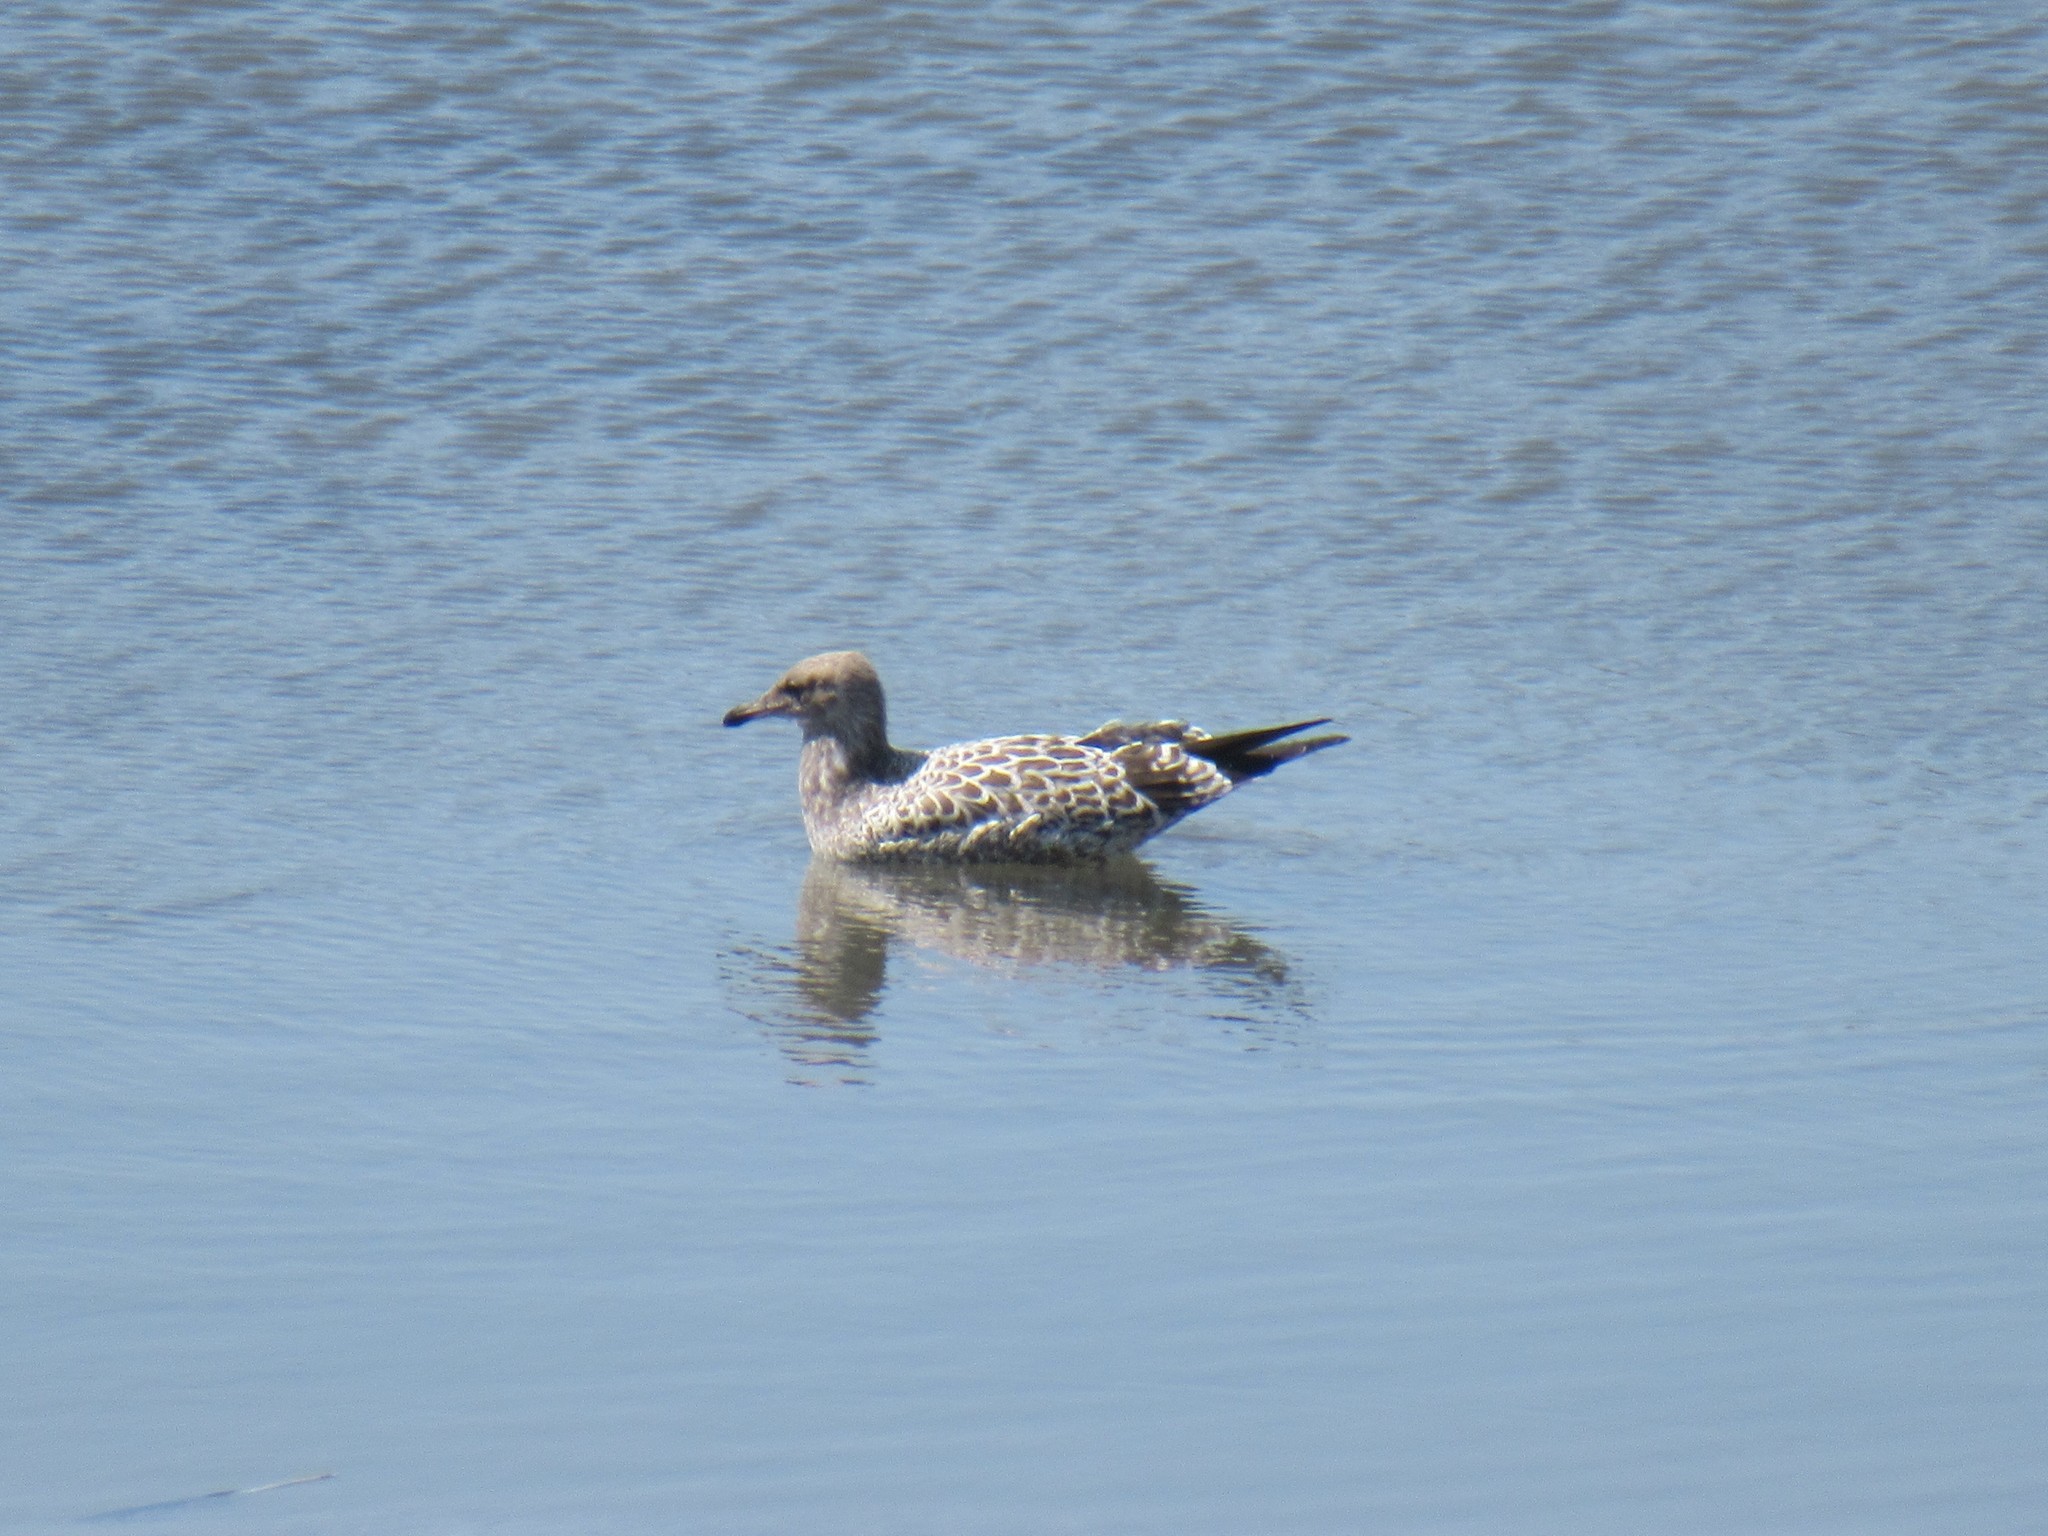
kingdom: Animalia
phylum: Chordata
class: Aves
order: Charadriiformes
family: Laridae
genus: Larus
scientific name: Larus californicus
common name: California gull
